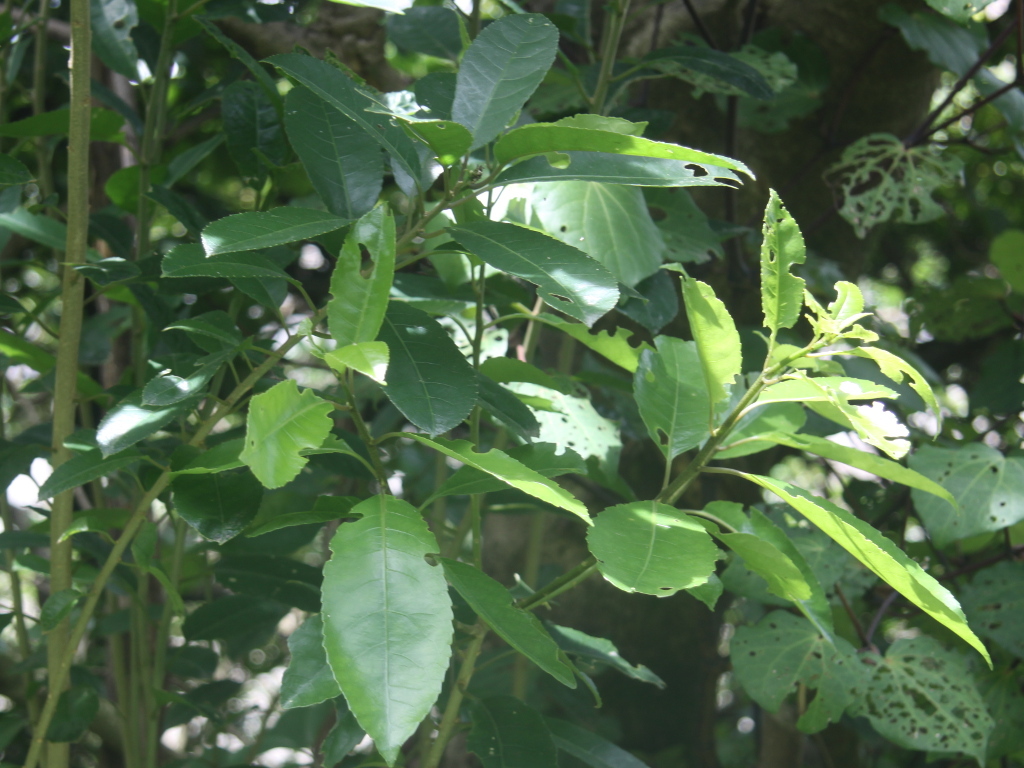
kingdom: Plantae
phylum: Tracheophyta
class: Magnoliopsida
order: Malpighiales
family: Violaceae
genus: Melicytus
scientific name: Melicytus ramiflorus
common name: Mahoe
